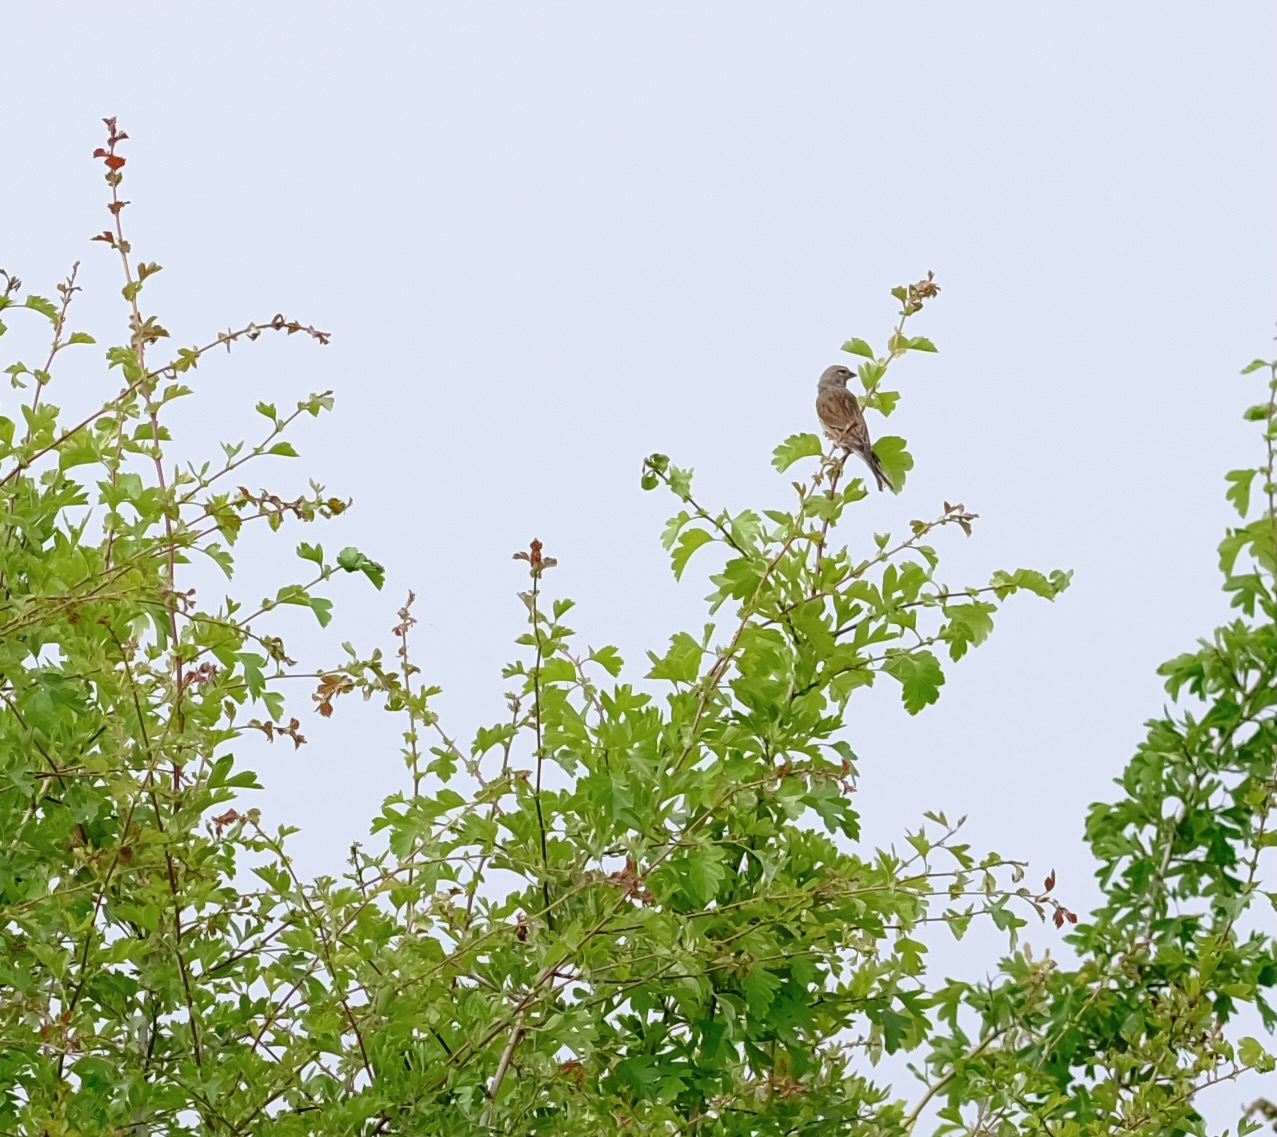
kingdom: Animalia
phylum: Chordata
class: Aves
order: Passeriformes
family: Fringillidae
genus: Linaria
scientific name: Linaria cannabina
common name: Common linnet
